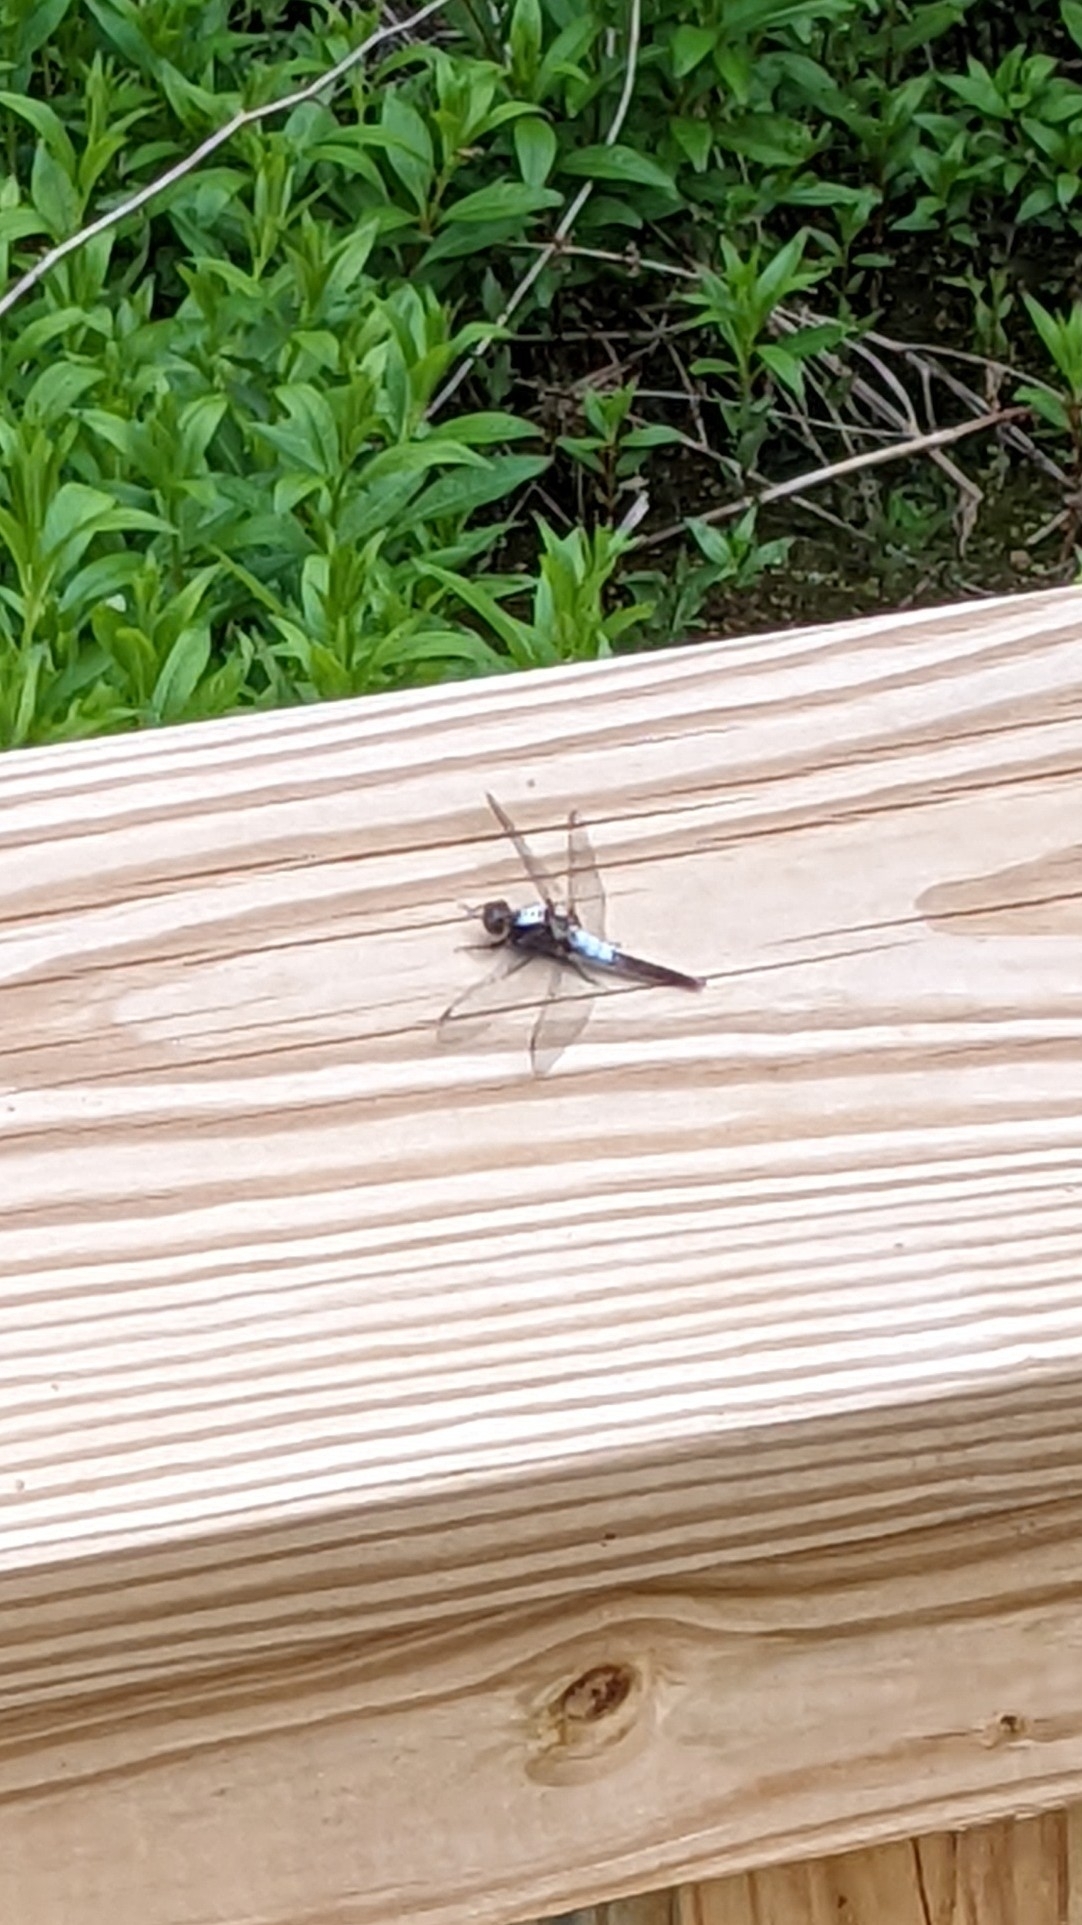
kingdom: Animalia
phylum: Arthropoda
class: Insecta
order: Odonata
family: Libellulidae
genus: Ladona
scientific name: Ladona julia
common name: Chalk-fronted corporal
